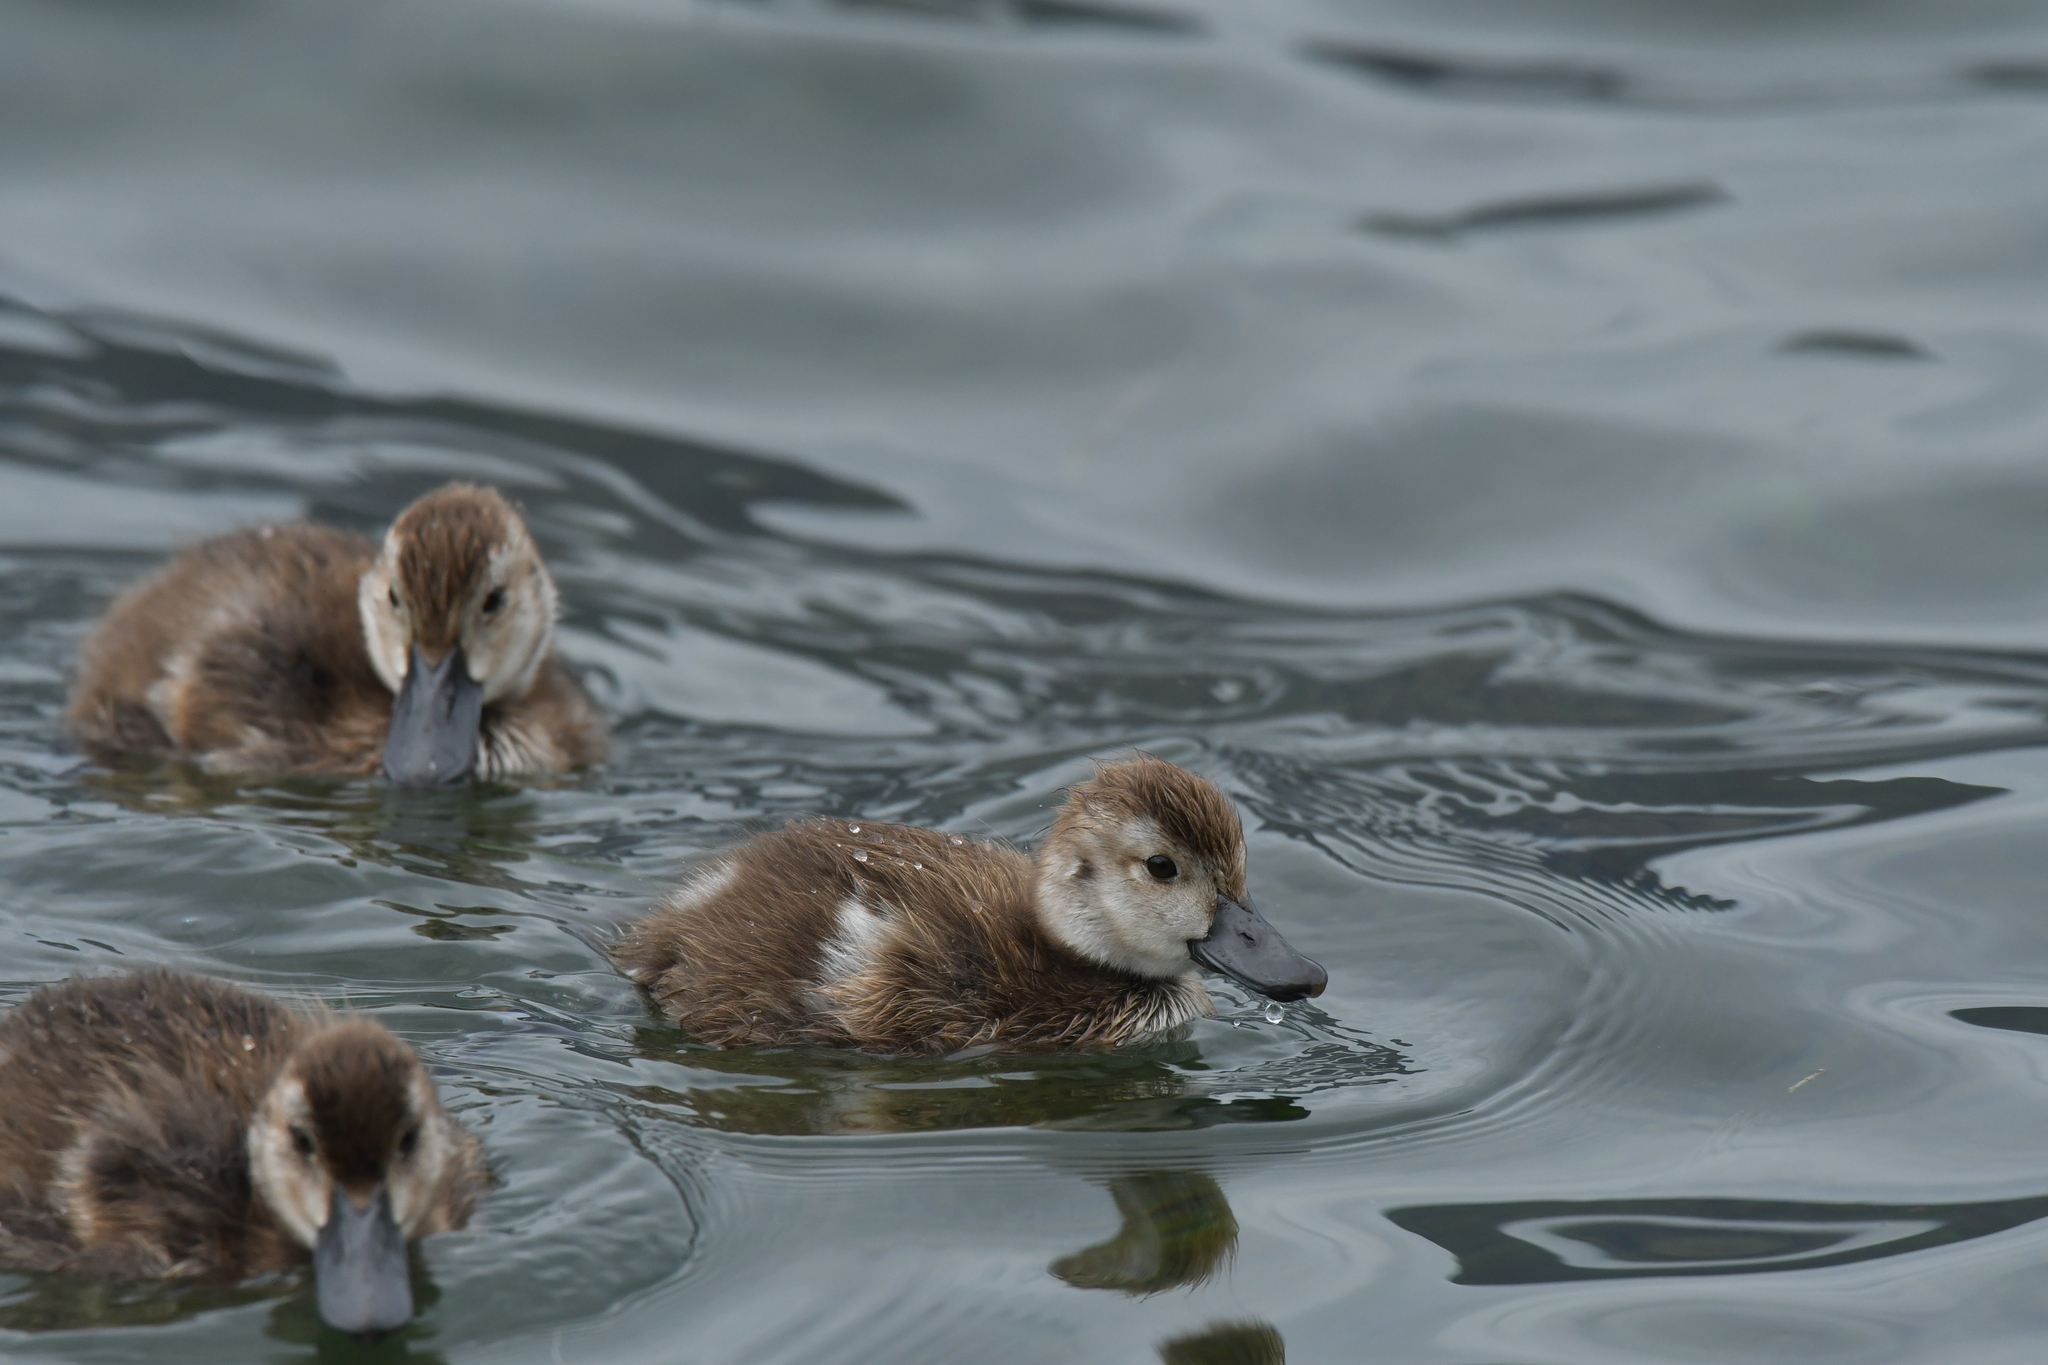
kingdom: Animalia
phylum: Chordata
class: Aves
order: Anseriformes
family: Anatidae
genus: Aythya
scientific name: Aythya novaeseelandiae
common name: New zealand scaup
